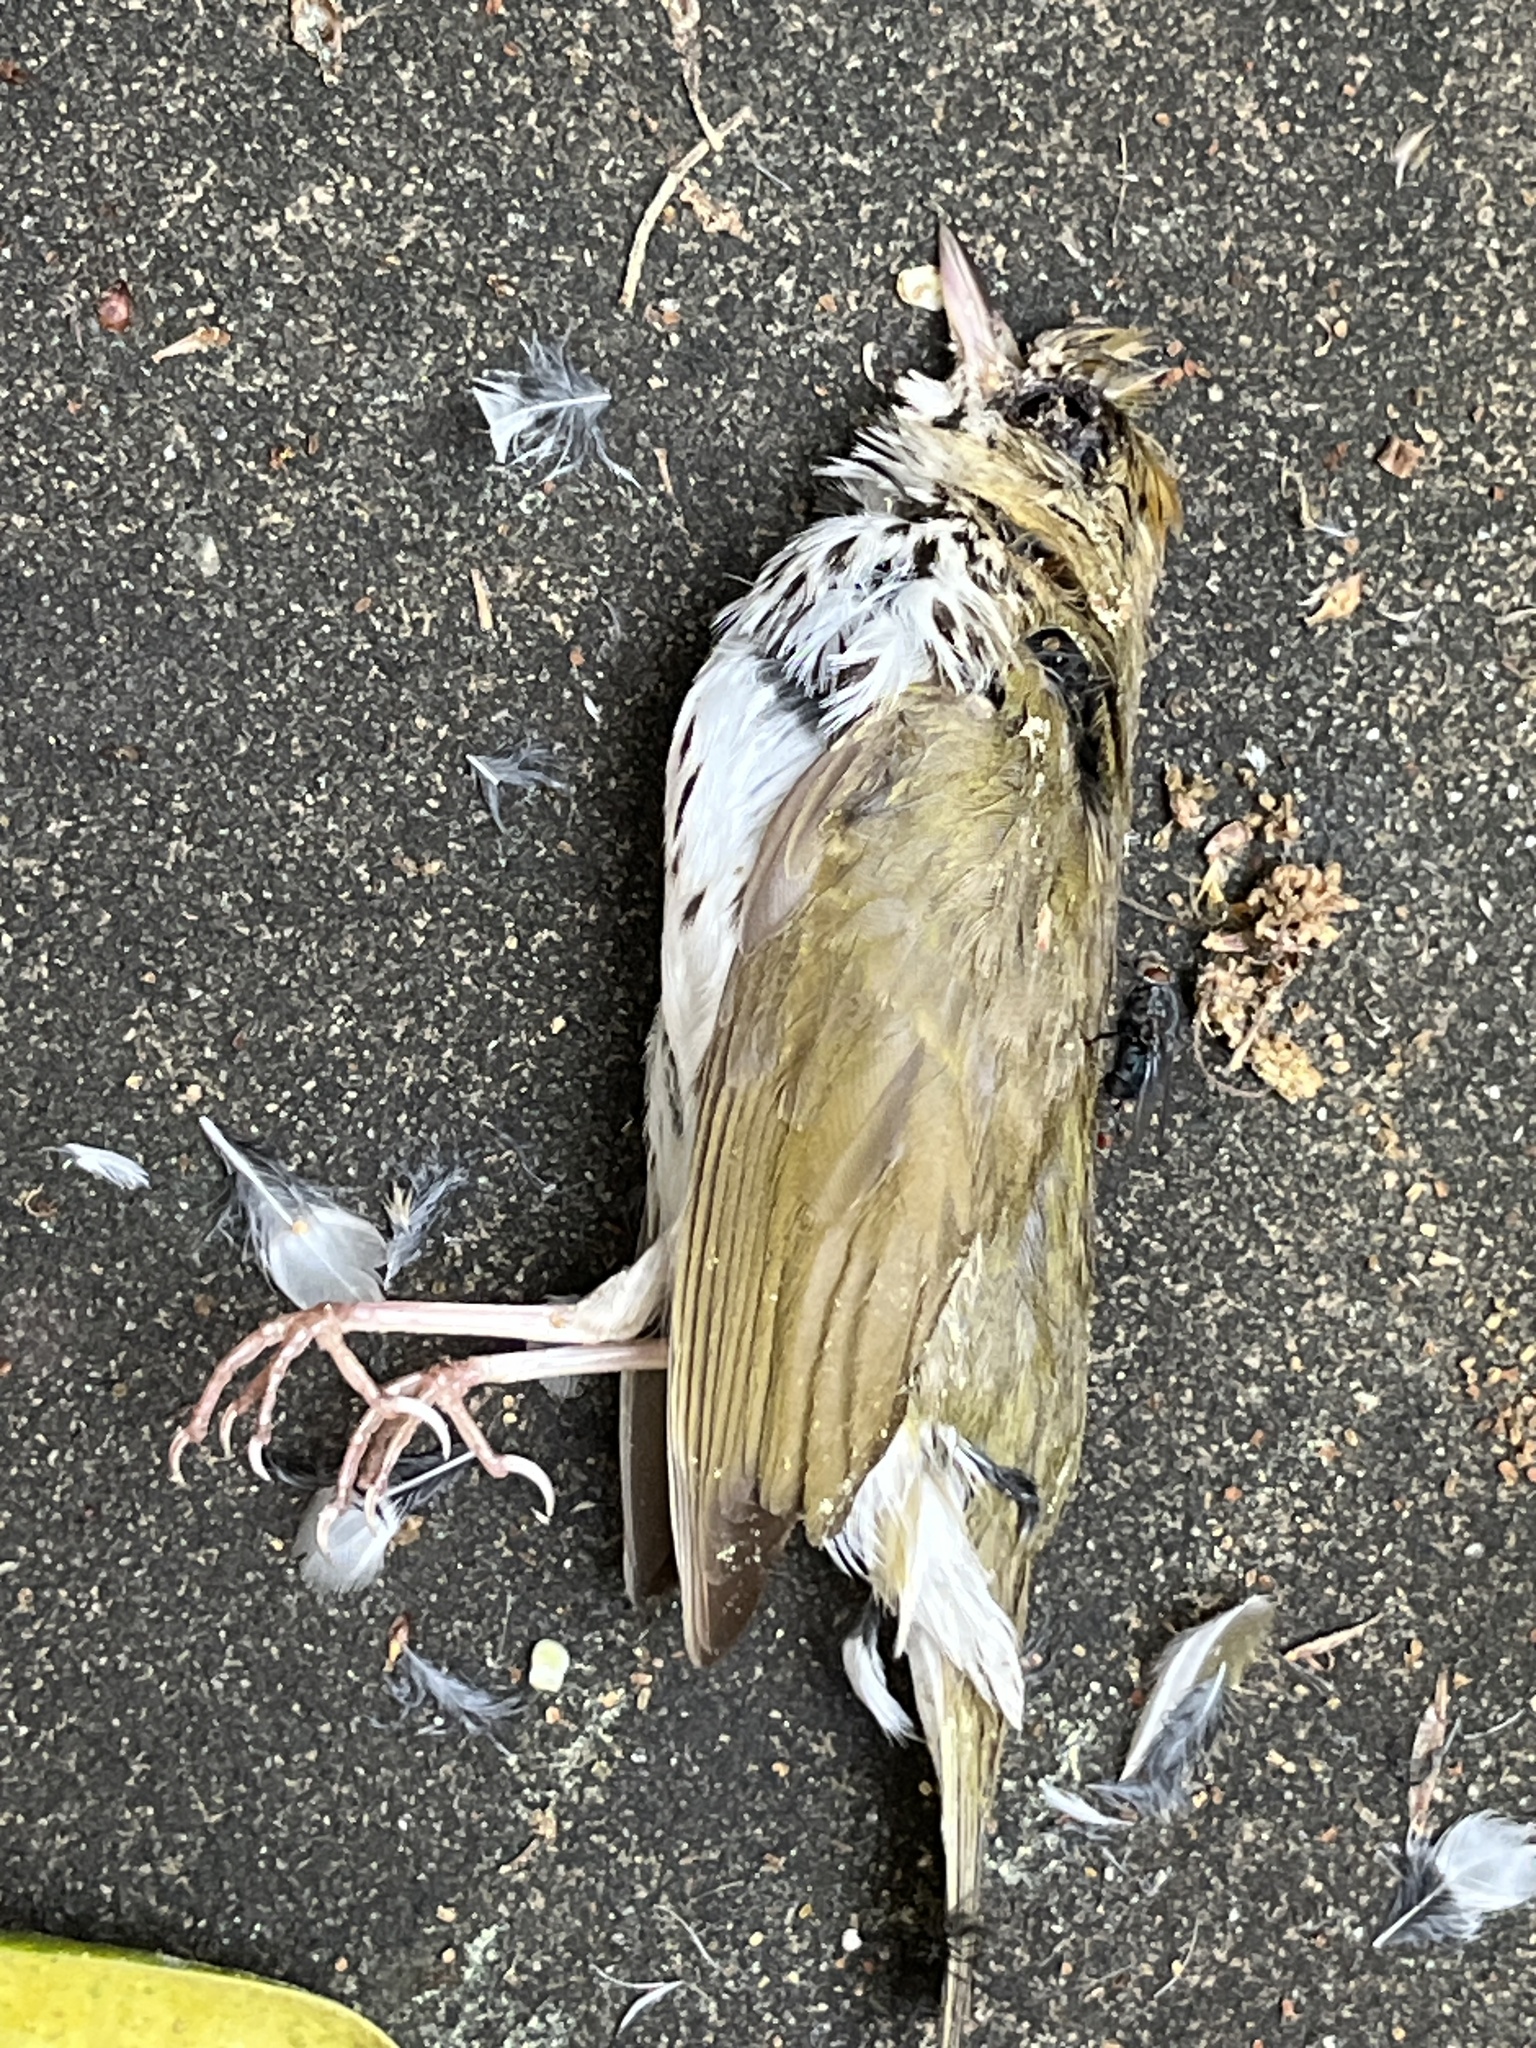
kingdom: Animalia
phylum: Chordata
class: Aves
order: Passeriformes
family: Parulidae
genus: Seiurus
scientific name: Seiurus aurocapilla
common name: Ovenbird
